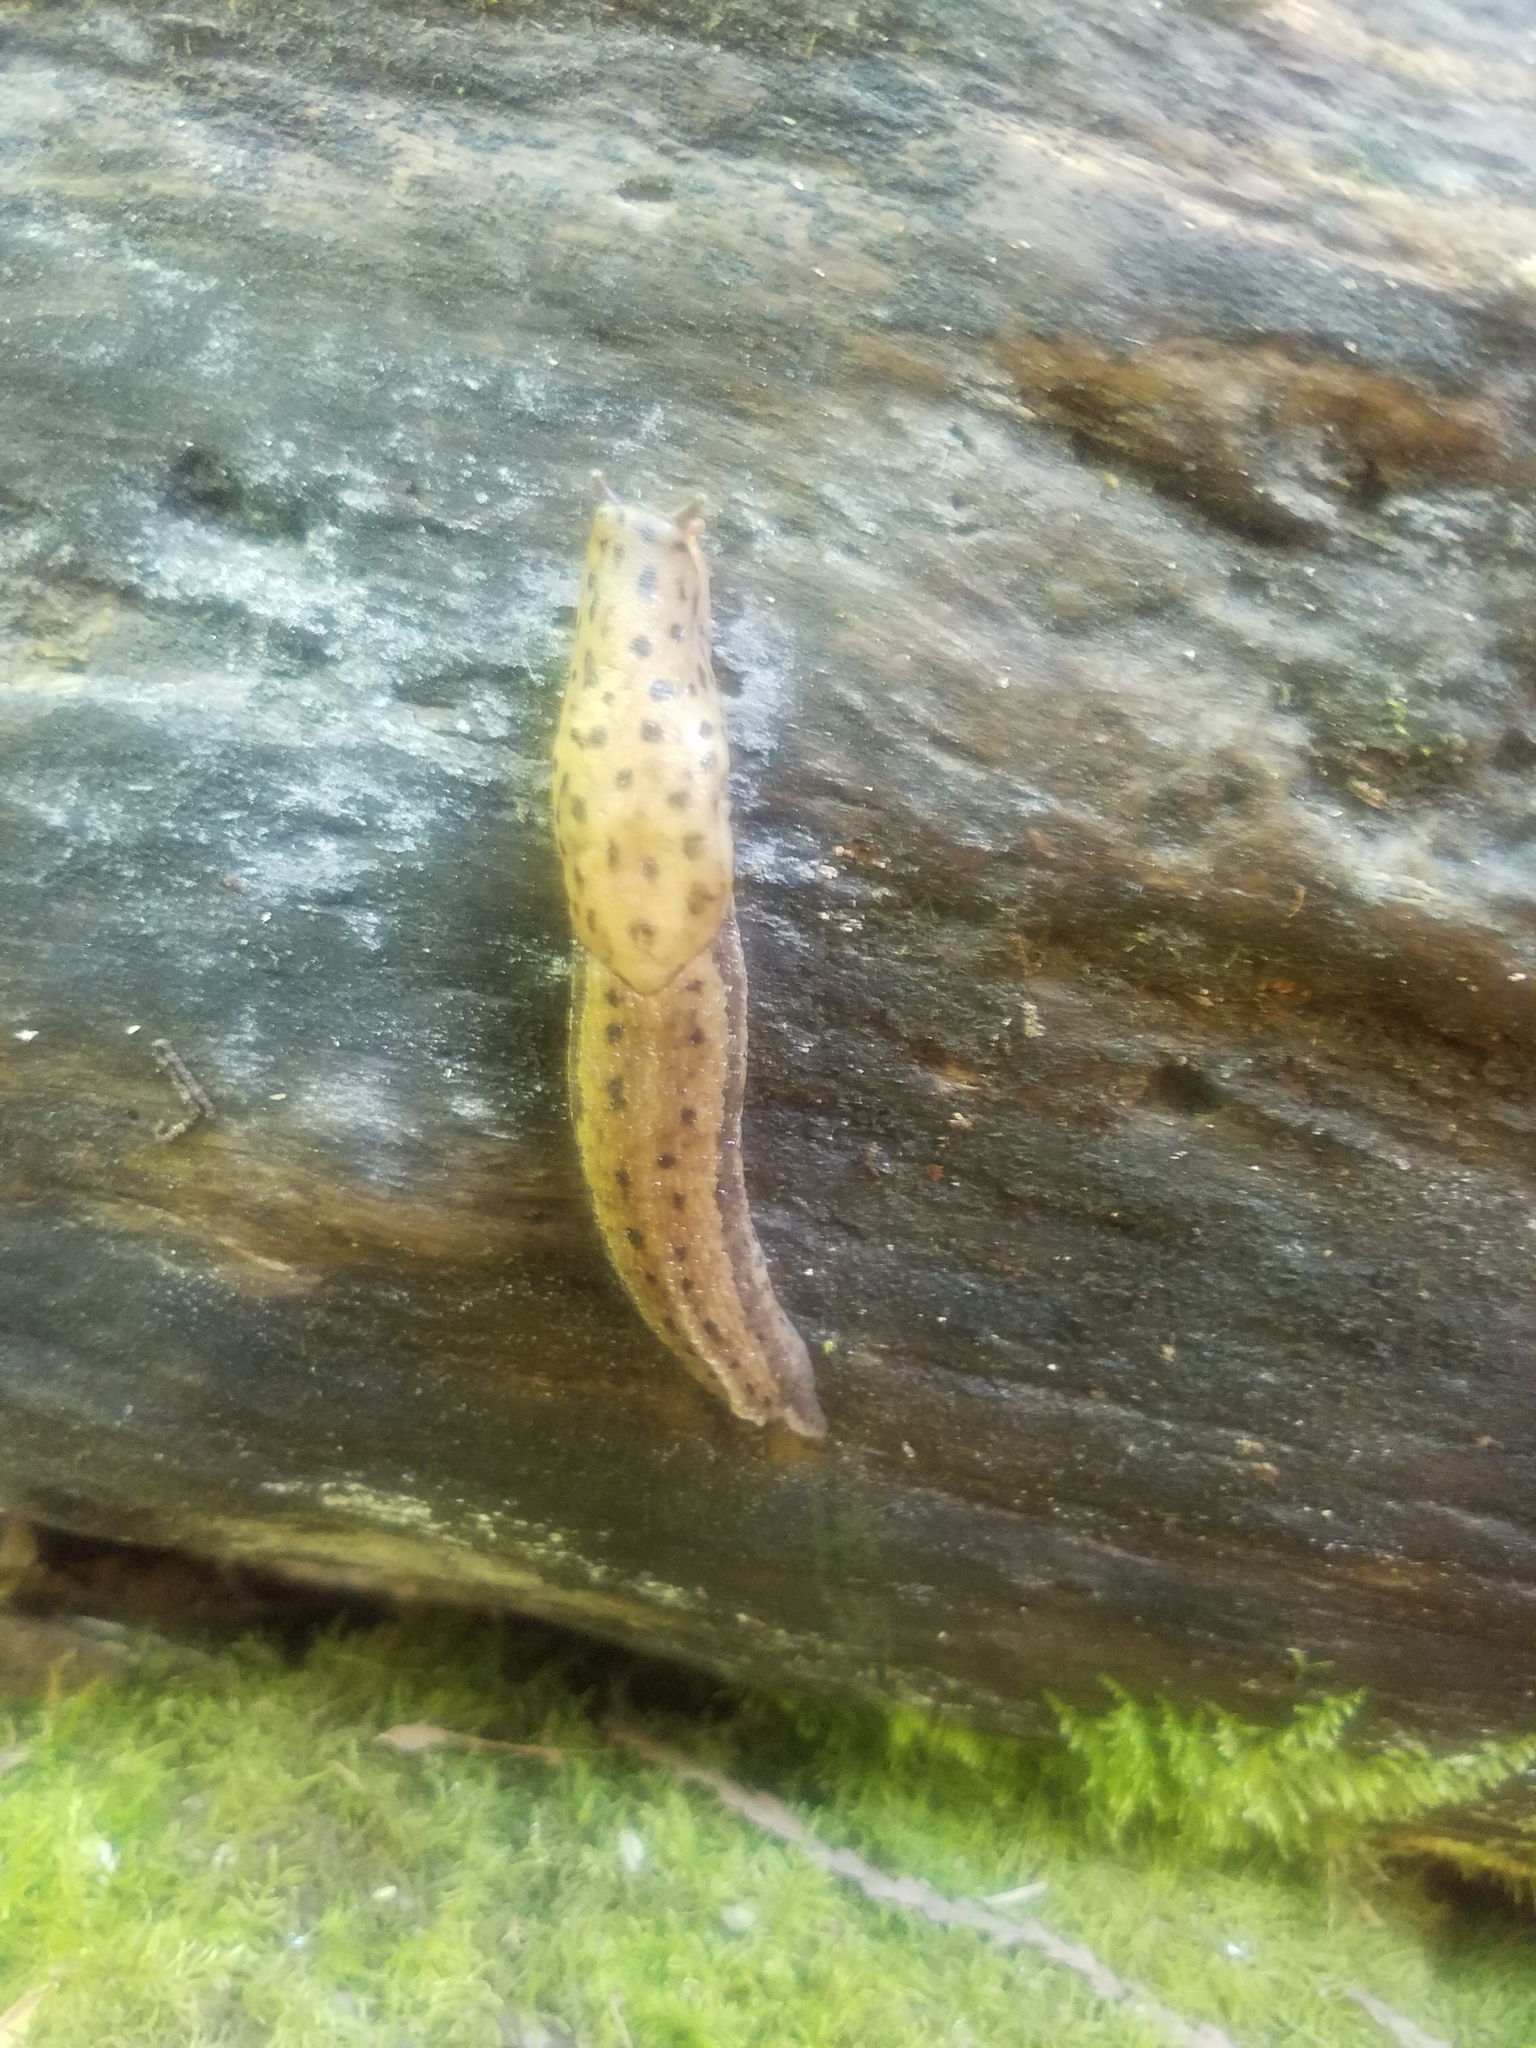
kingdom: Animalia
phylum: Mollusca
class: Gastropoda
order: Stylommatophora
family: Limacidae
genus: Limax
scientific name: Limax maximus
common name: Great grey slug
